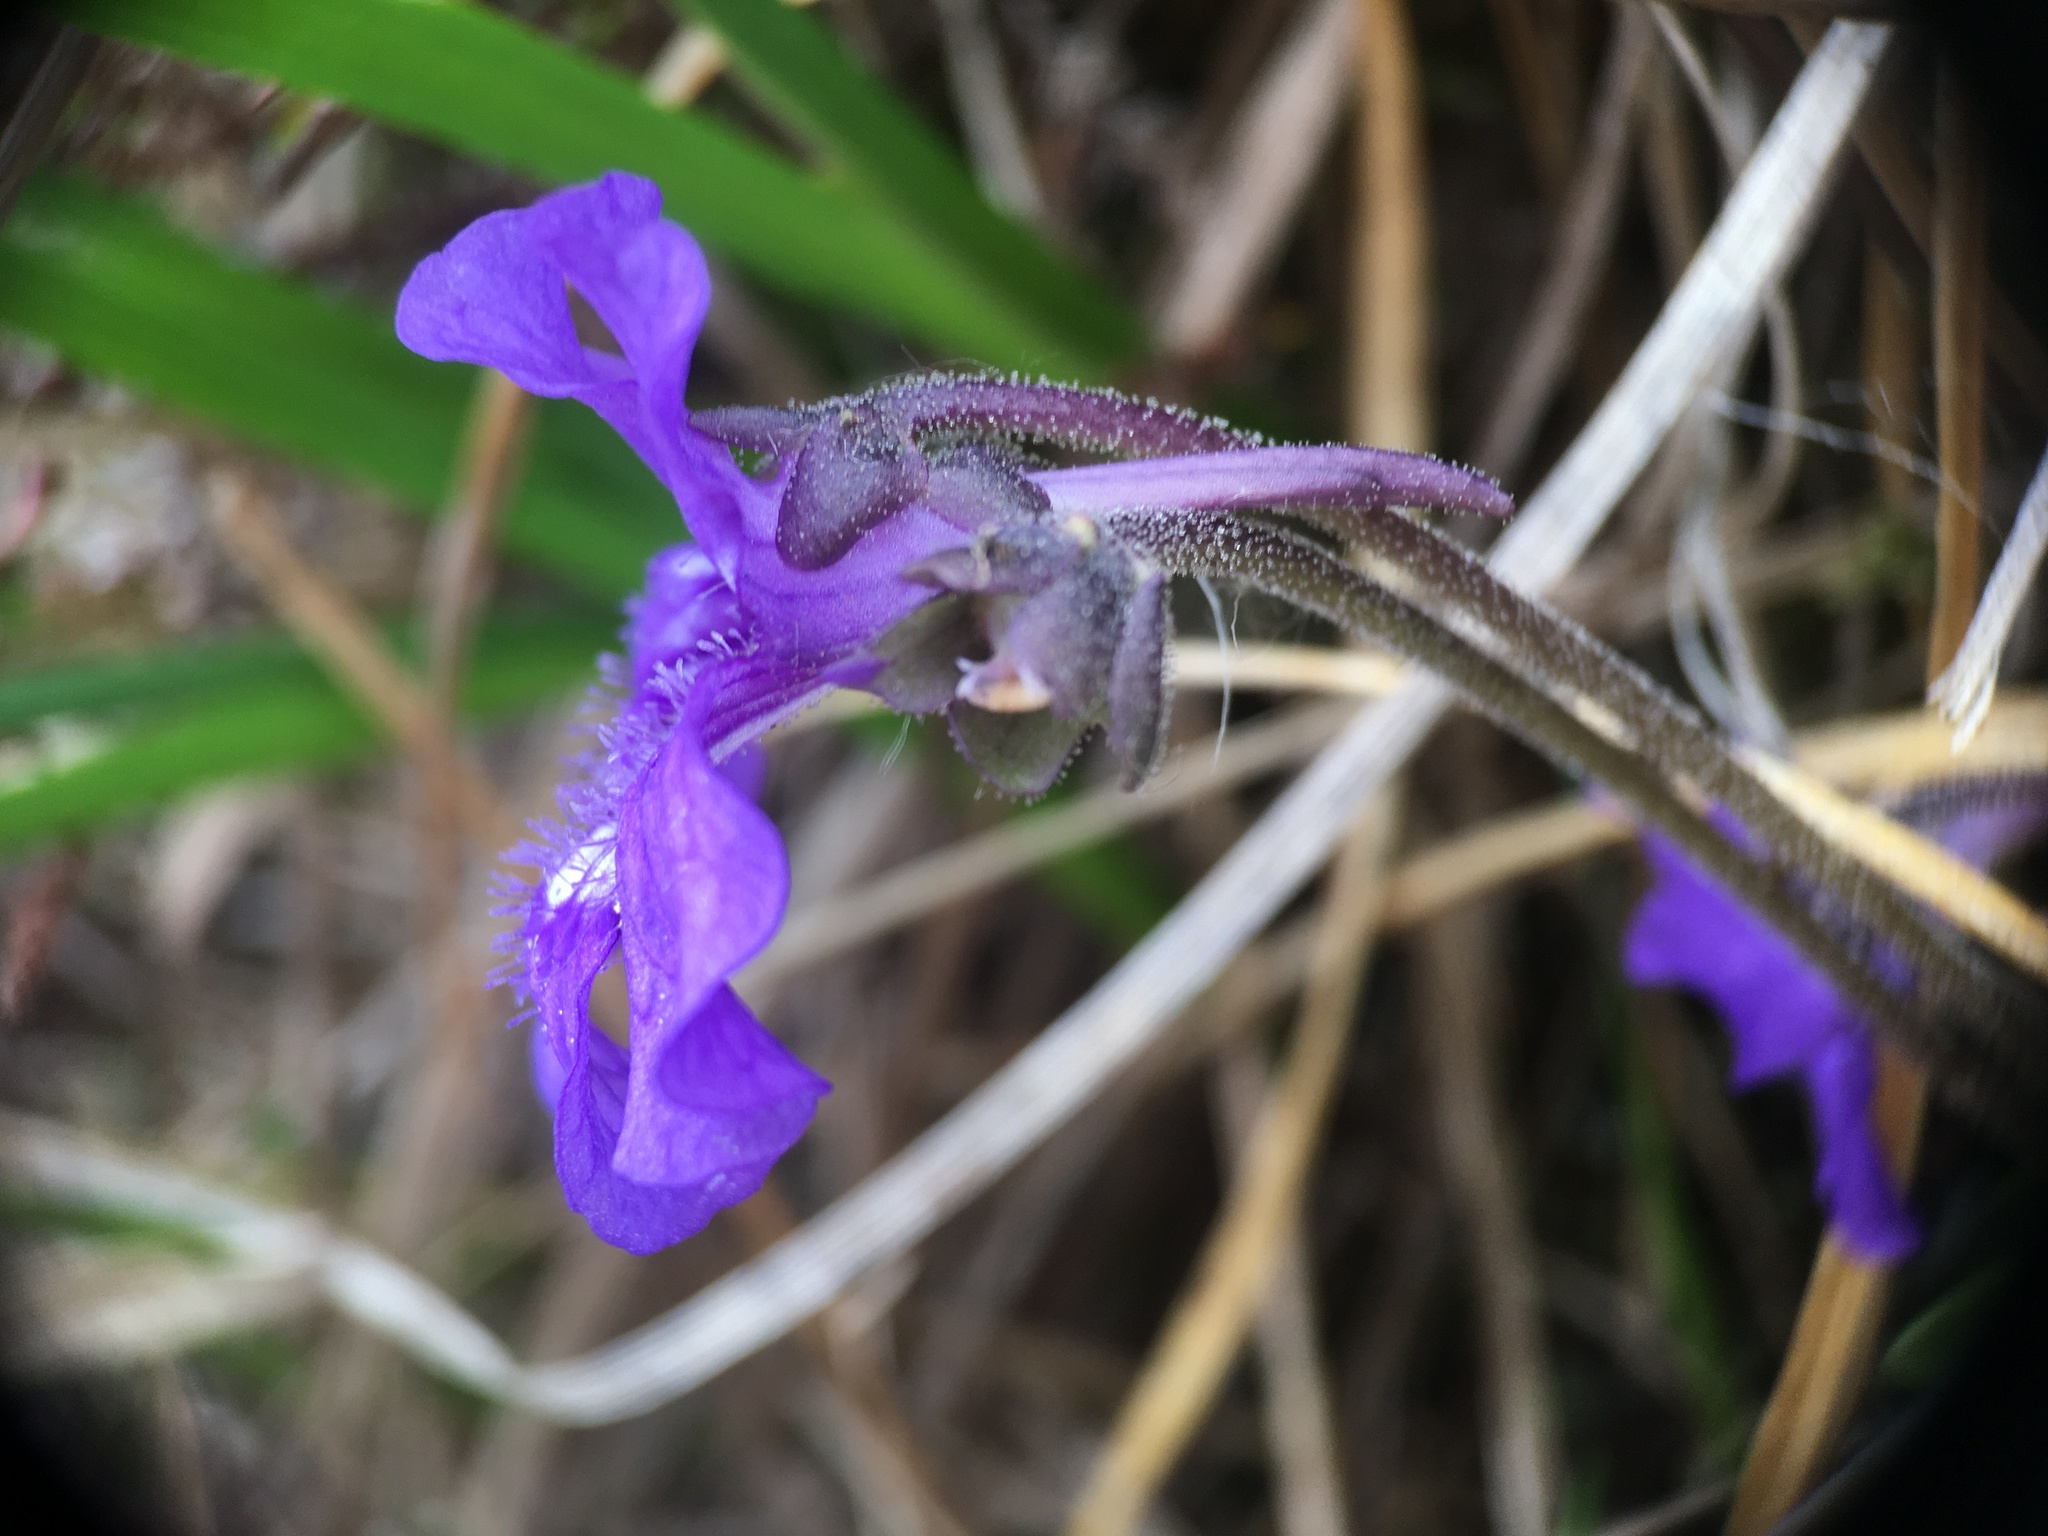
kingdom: Plantae
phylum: Tracheophyta
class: Magnoliopsida
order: Lamiales
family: Lentibulariaceae
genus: Pinguicula
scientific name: Pinguicula grandiflora
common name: Large-flowered butterwort
